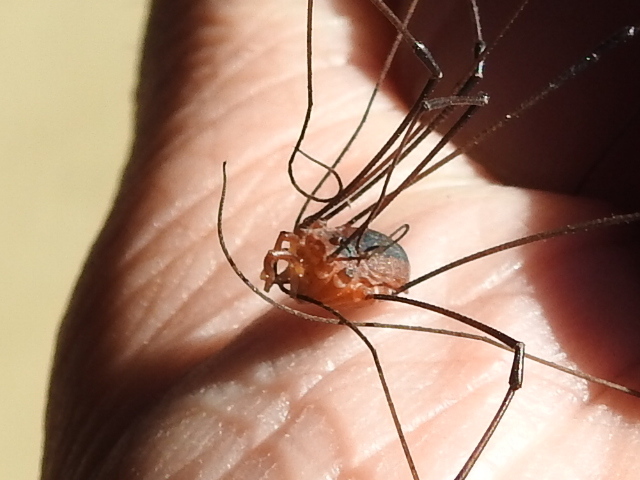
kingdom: Animalia
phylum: Arthropoda
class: Arachnida
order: Opiliones
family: Sclerosomatidae
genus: Leiobunum
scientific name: Leiobunum vittatum
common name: Eastern harvestman
